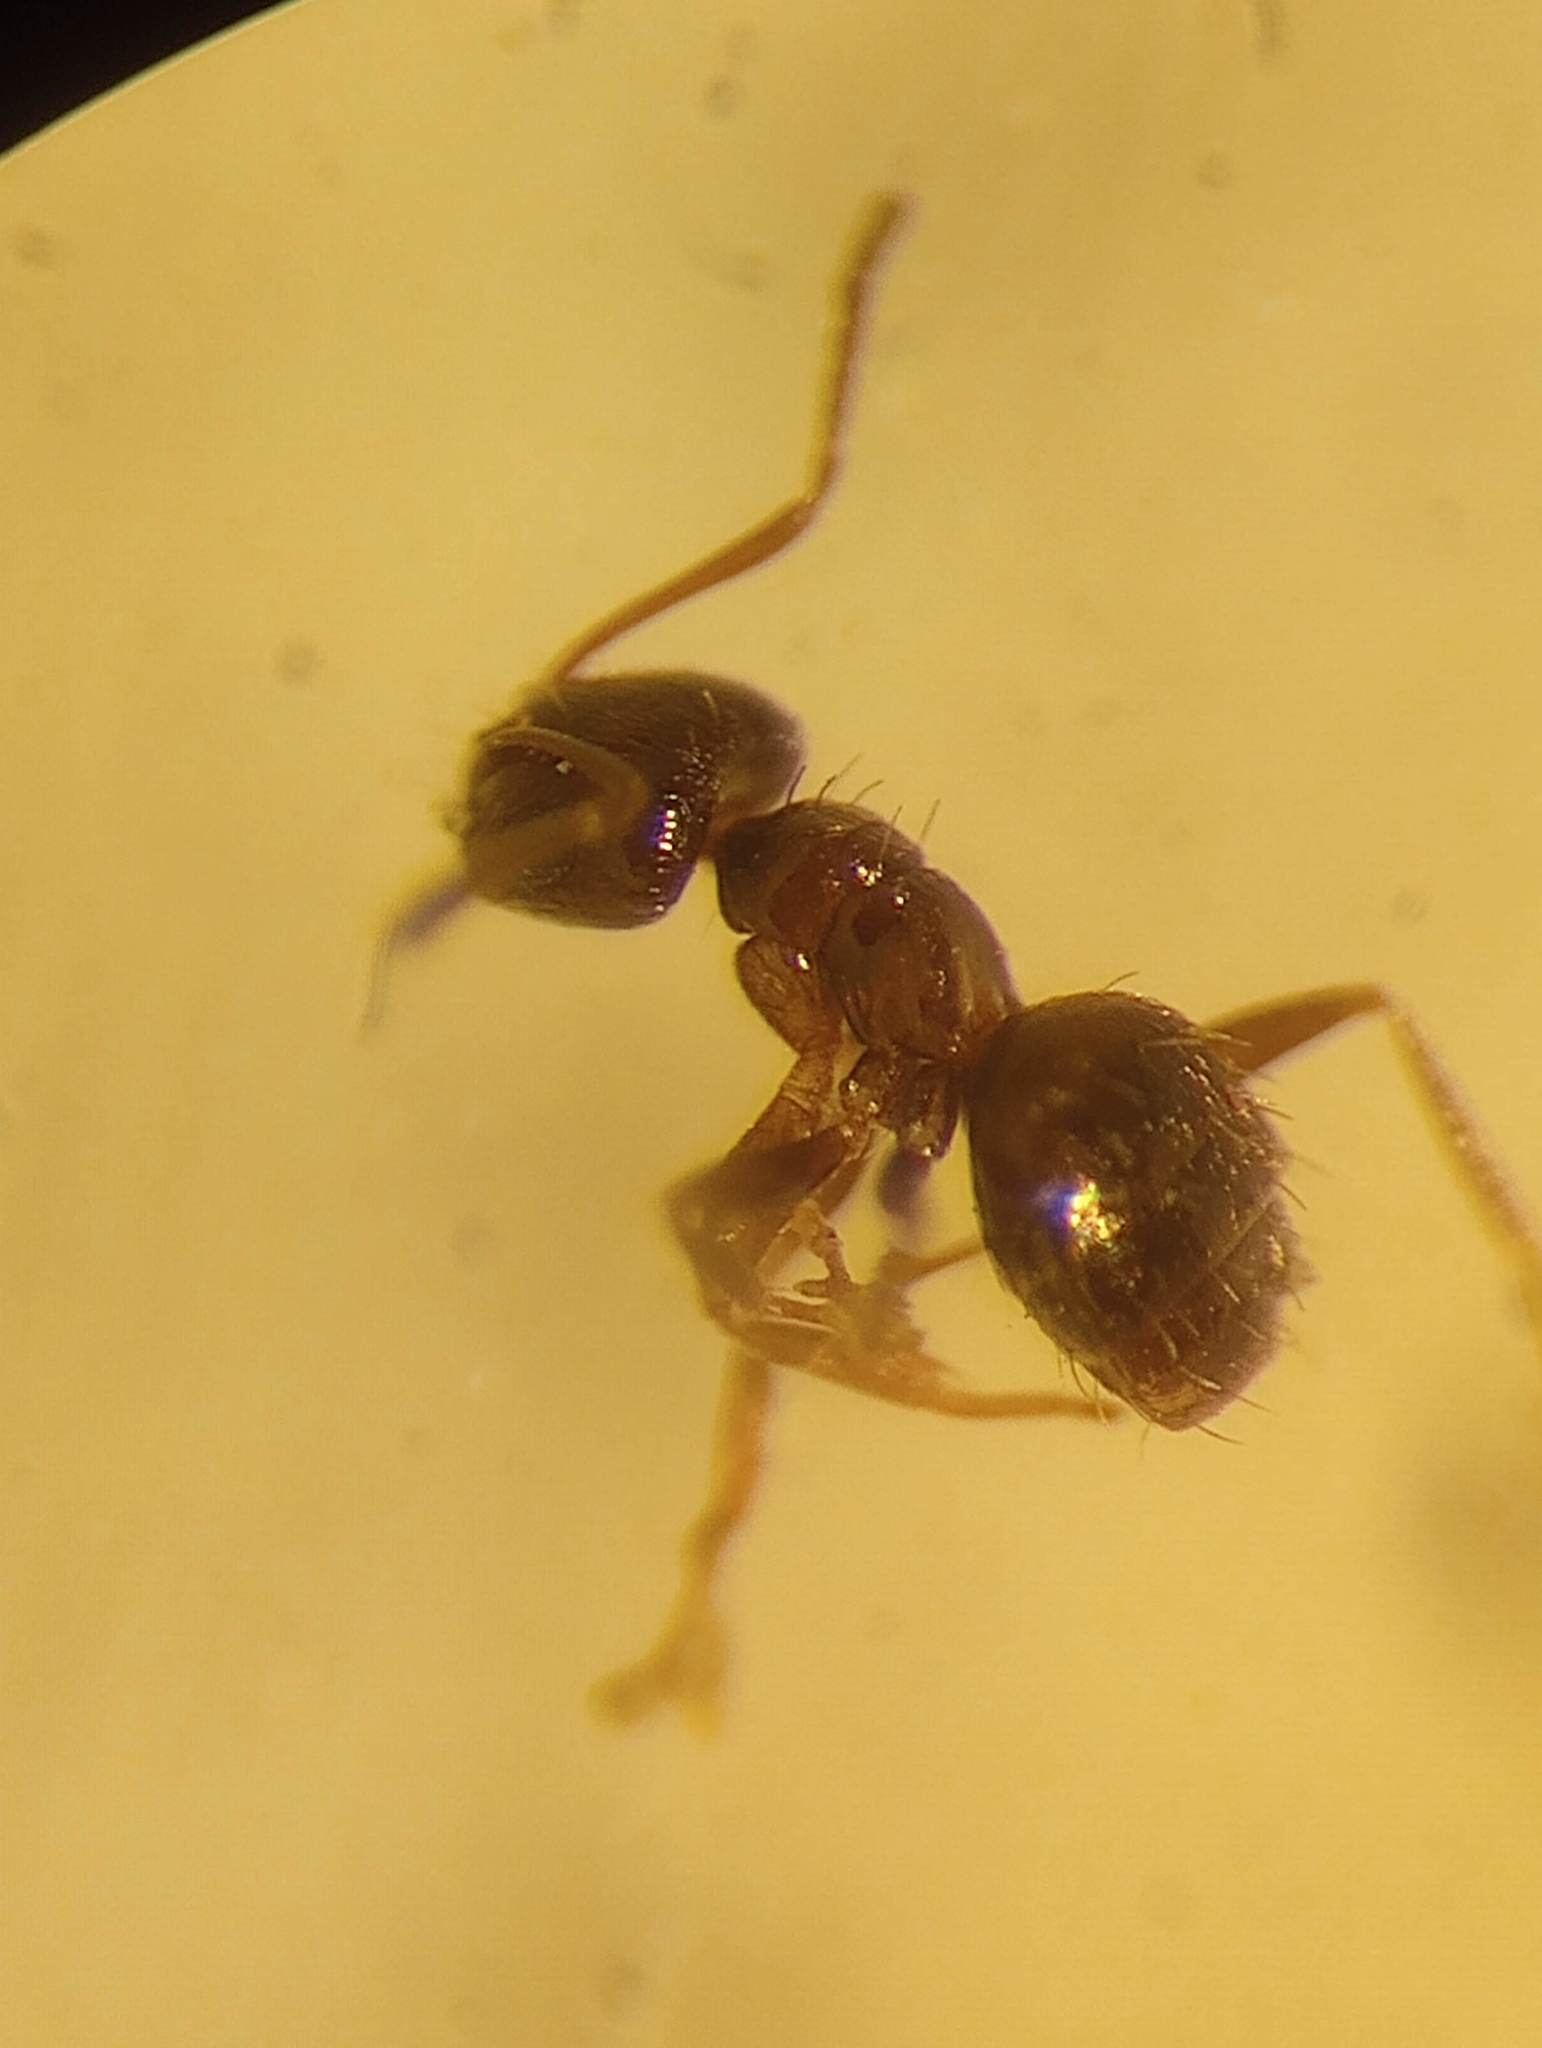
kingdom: Animalia
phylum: Arthropoda
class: Insecta
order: Hymenoptera
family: Formicidae
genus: Brachymyrmex
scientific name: Brachymyrmex patagonicus
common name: Dark rover ant
